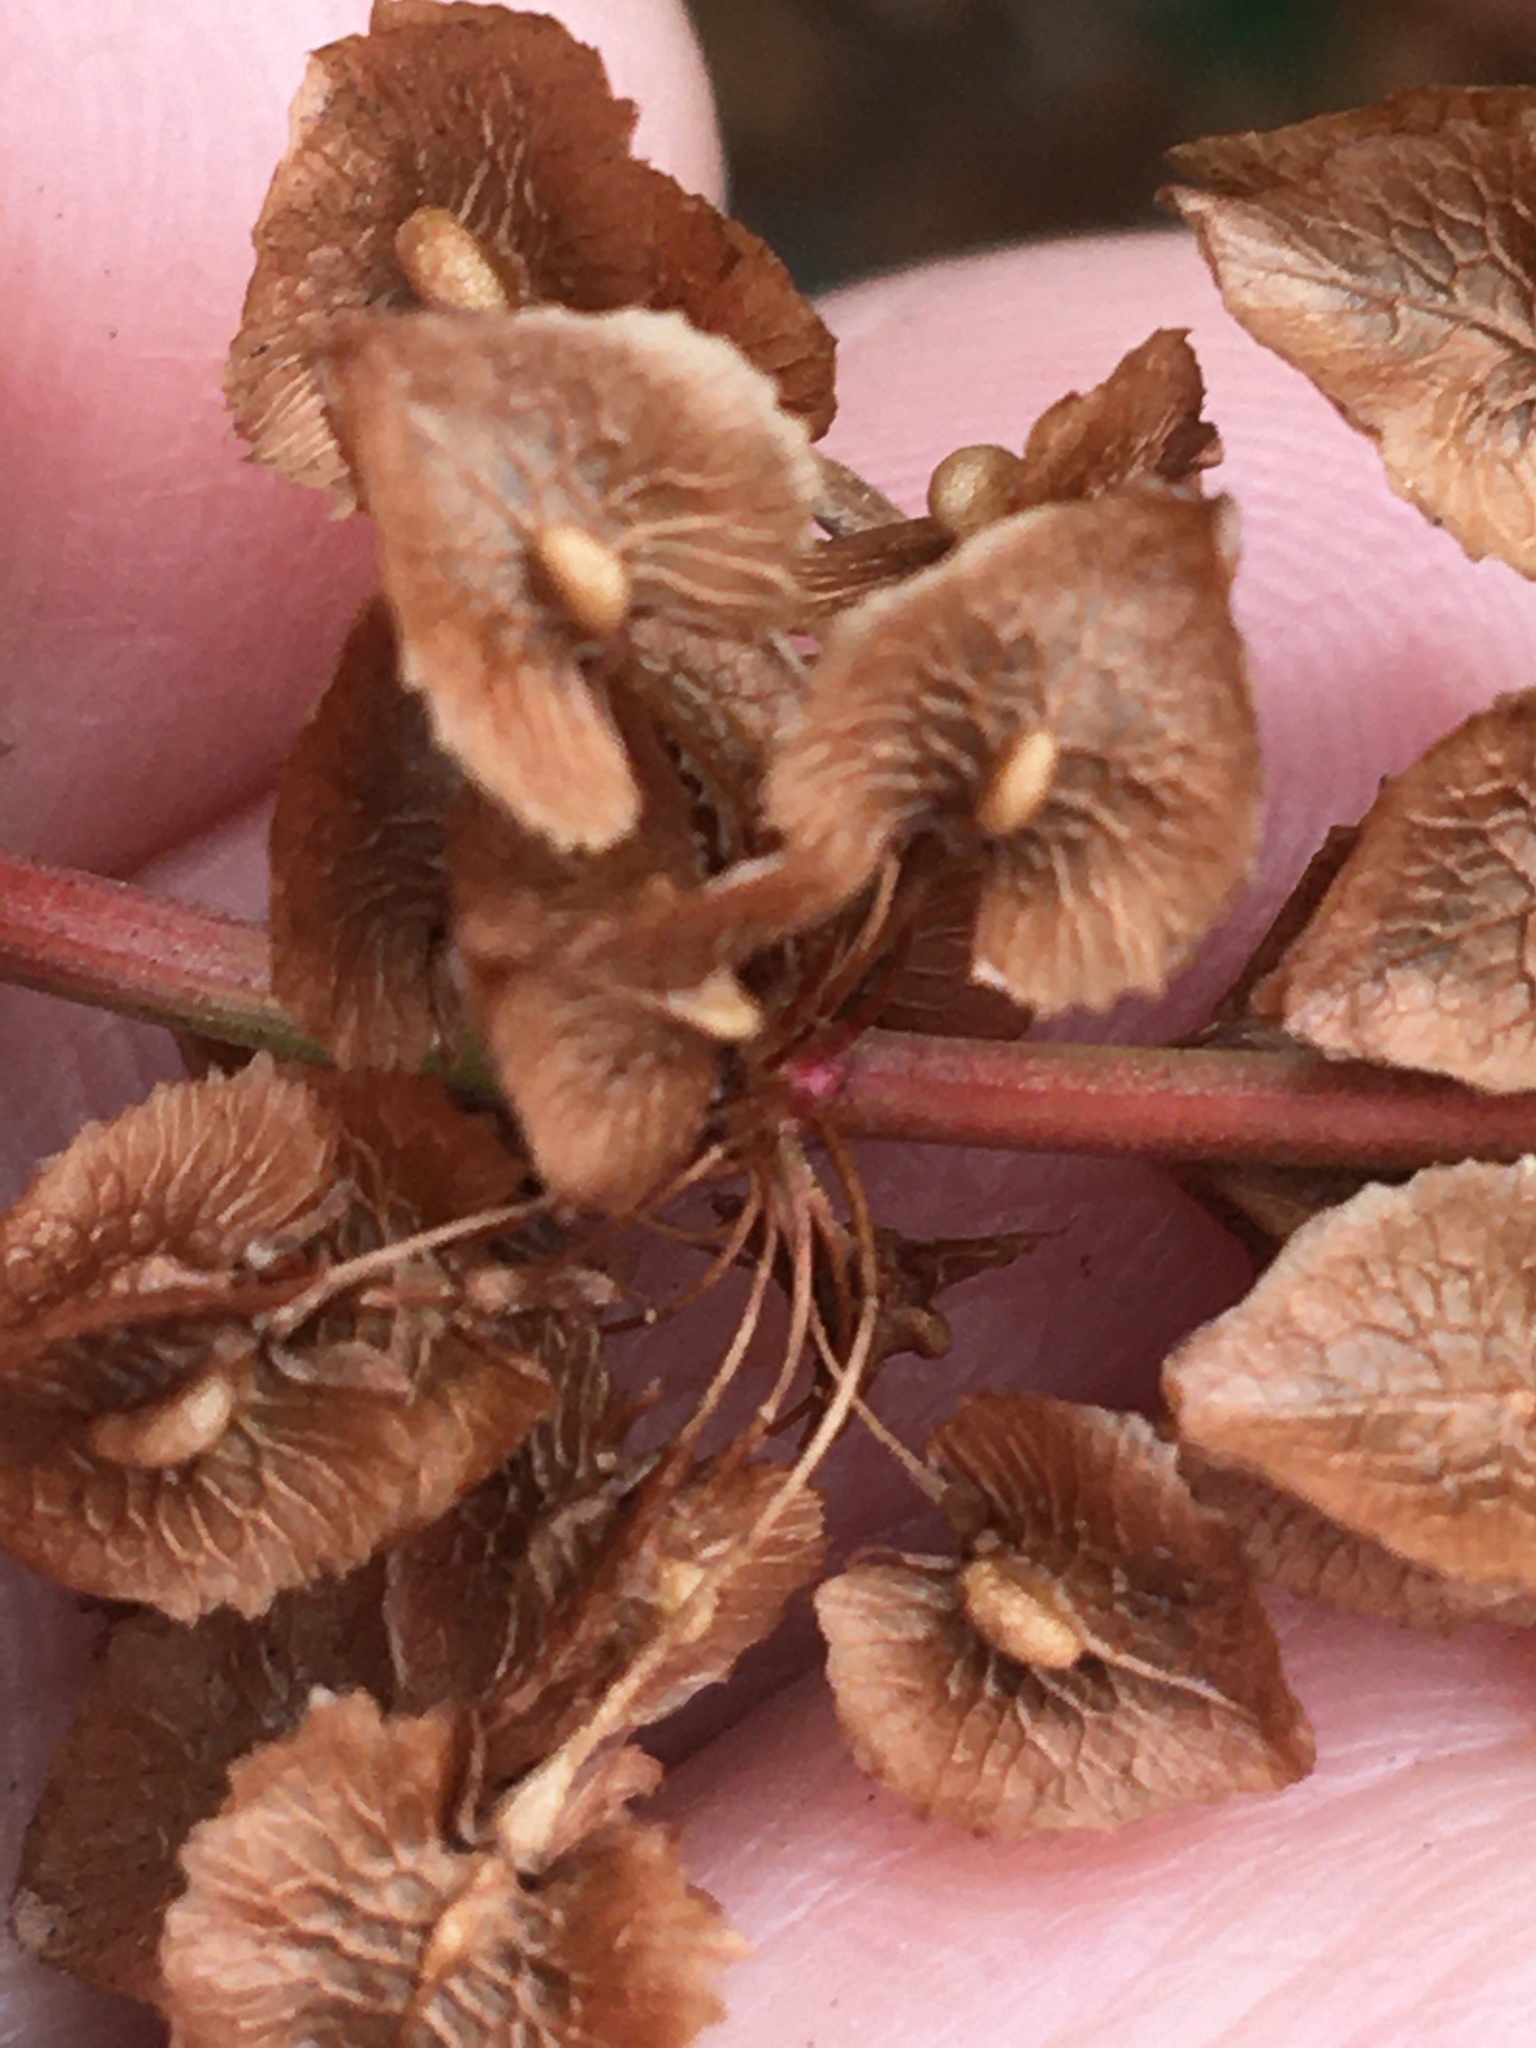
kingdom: Plantae
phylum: Tracheophyta
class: Magnoliopsida
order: Caryophyllales
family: Polygonaceae
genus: Rumex
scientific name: Rumex cristatus
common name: Greek dock
